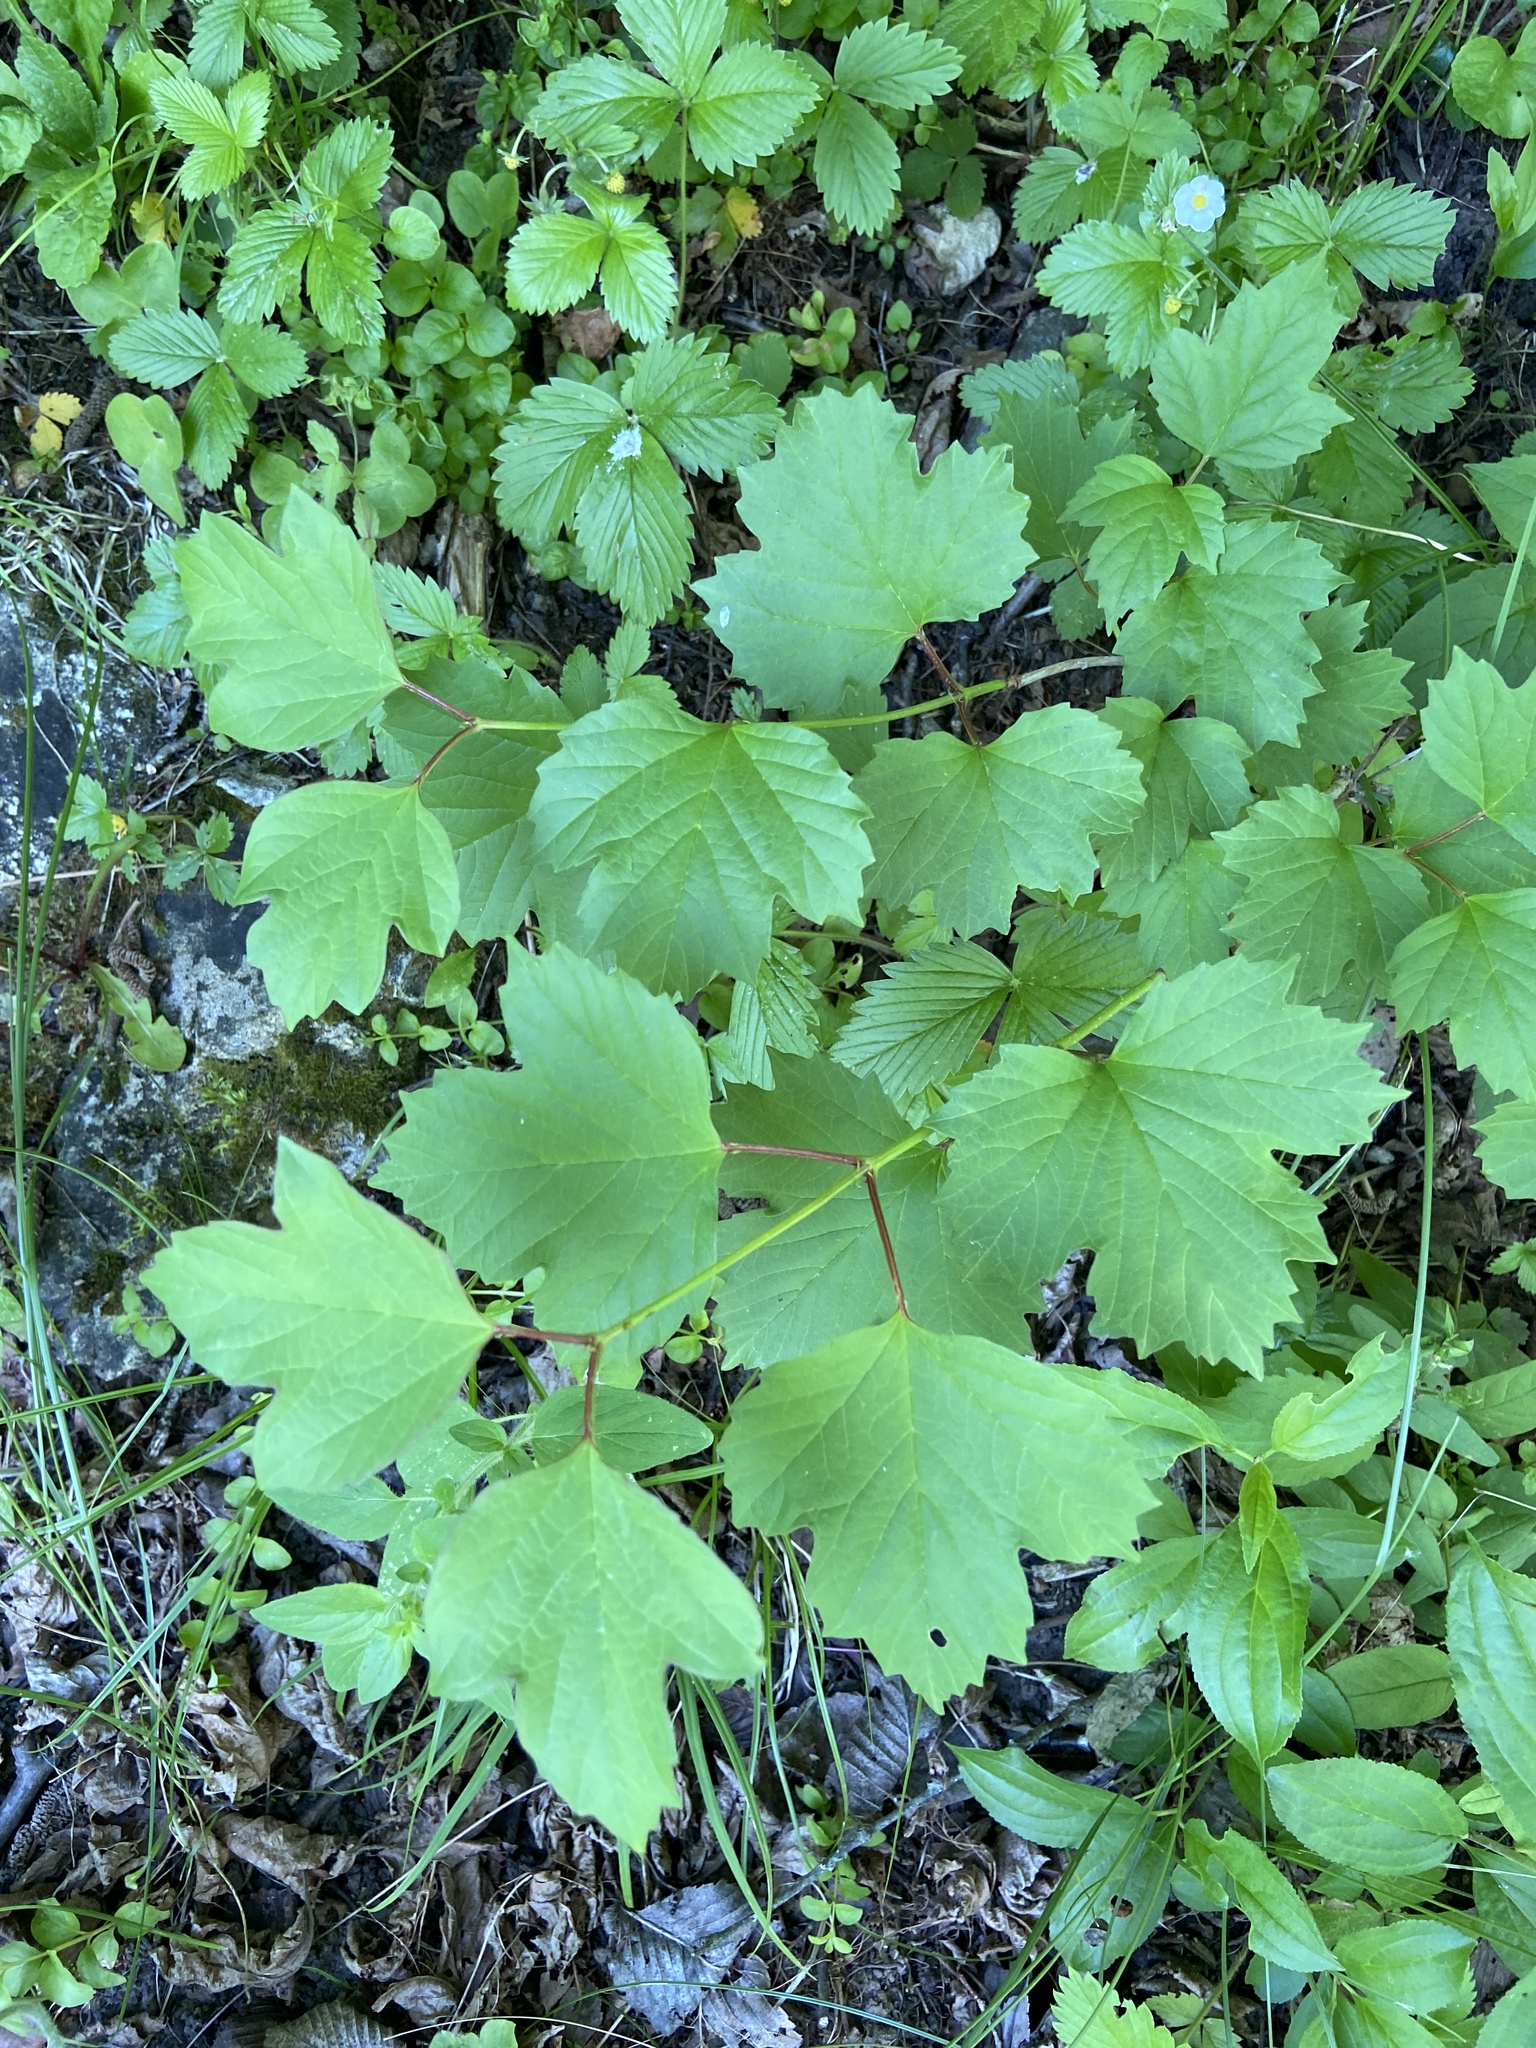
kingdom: Plantae
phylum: Tracheophyta
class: Magnoliopsida
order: Dipsacales
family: Viburnaceae
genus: Viburnum
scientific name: Viburnum opulus
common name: Guelder-rose
